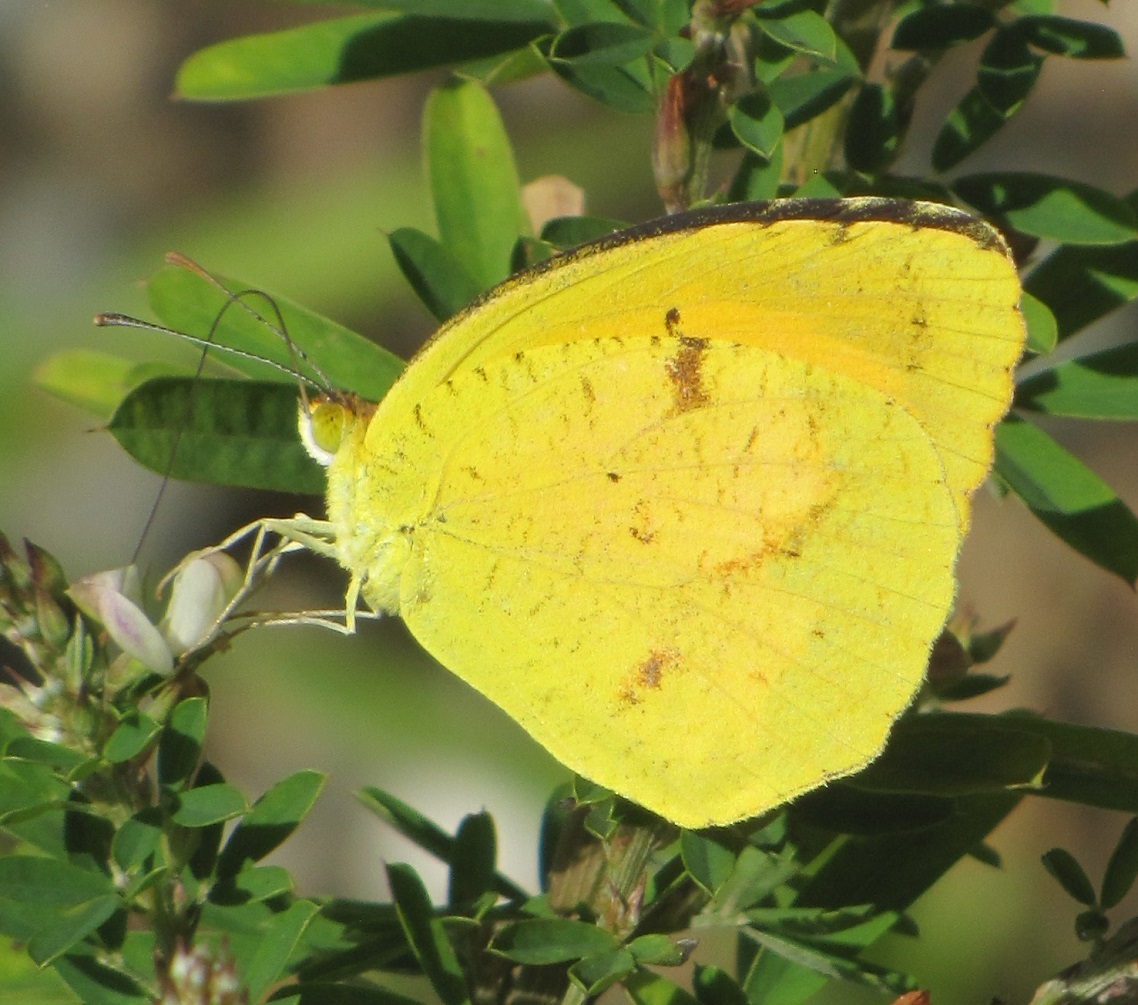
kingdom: Animalia
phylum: Arthropoda
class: Insecta
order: Lepidoptera
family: Pieridae
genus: Abaeis
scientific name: Abaeis nicippe
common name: Sleepy orange
